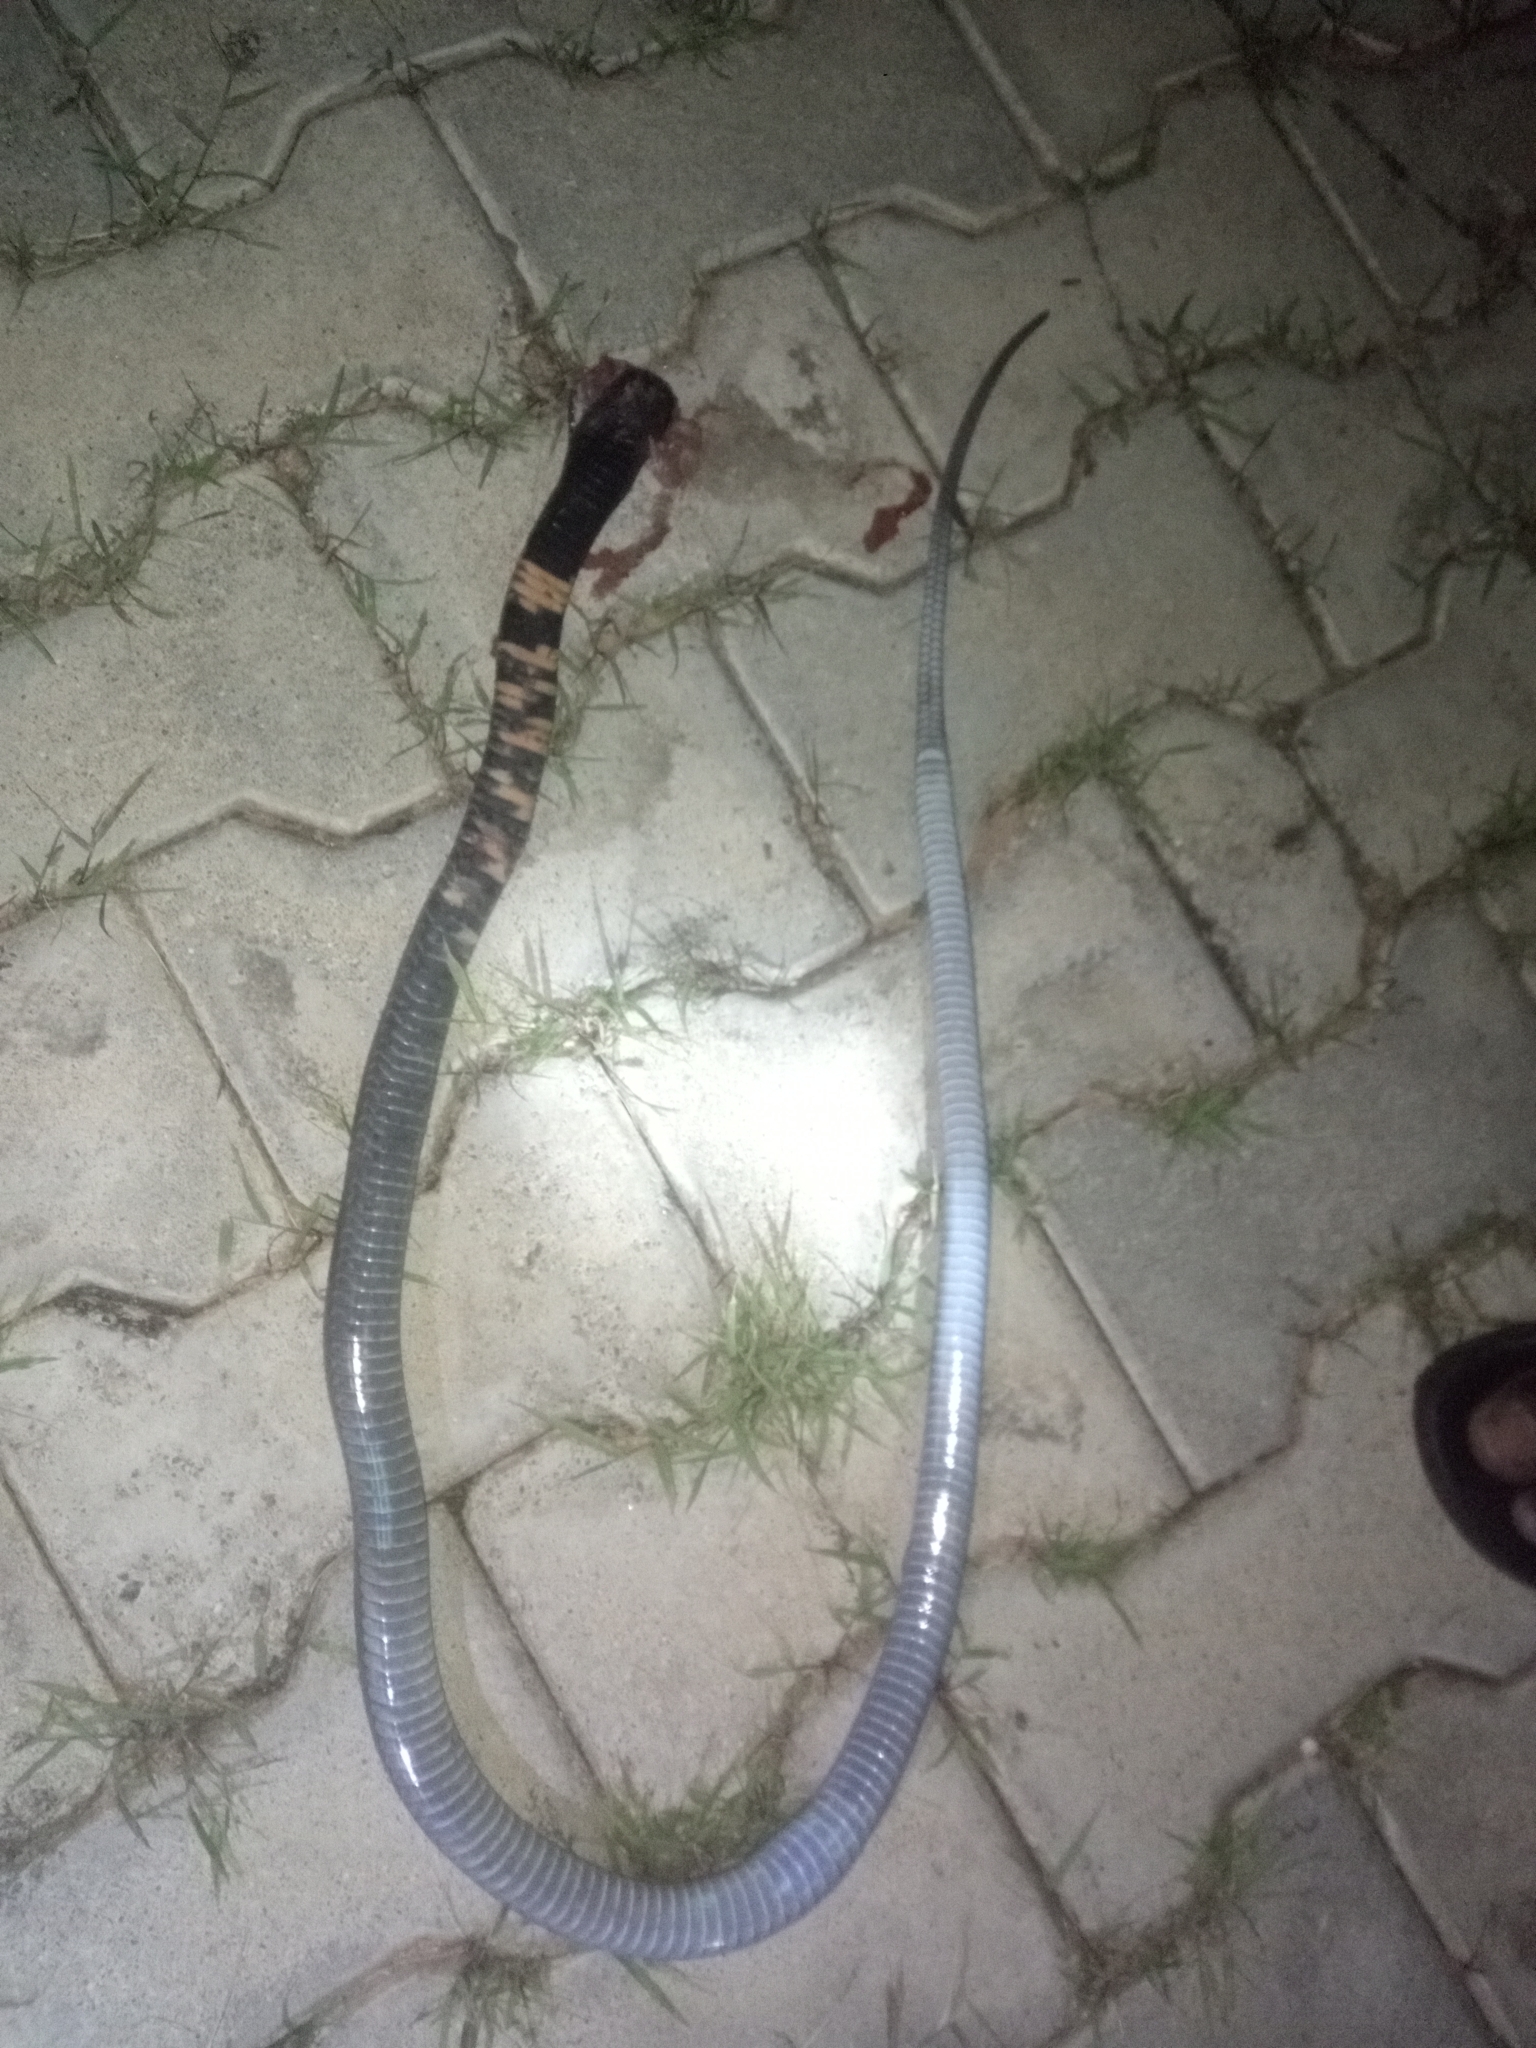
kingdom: Animalia
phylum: Chordata
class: Squamata
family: Elapidae
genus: Naja
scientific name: Naja nigricollis
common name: Black-necked spitting cobra
